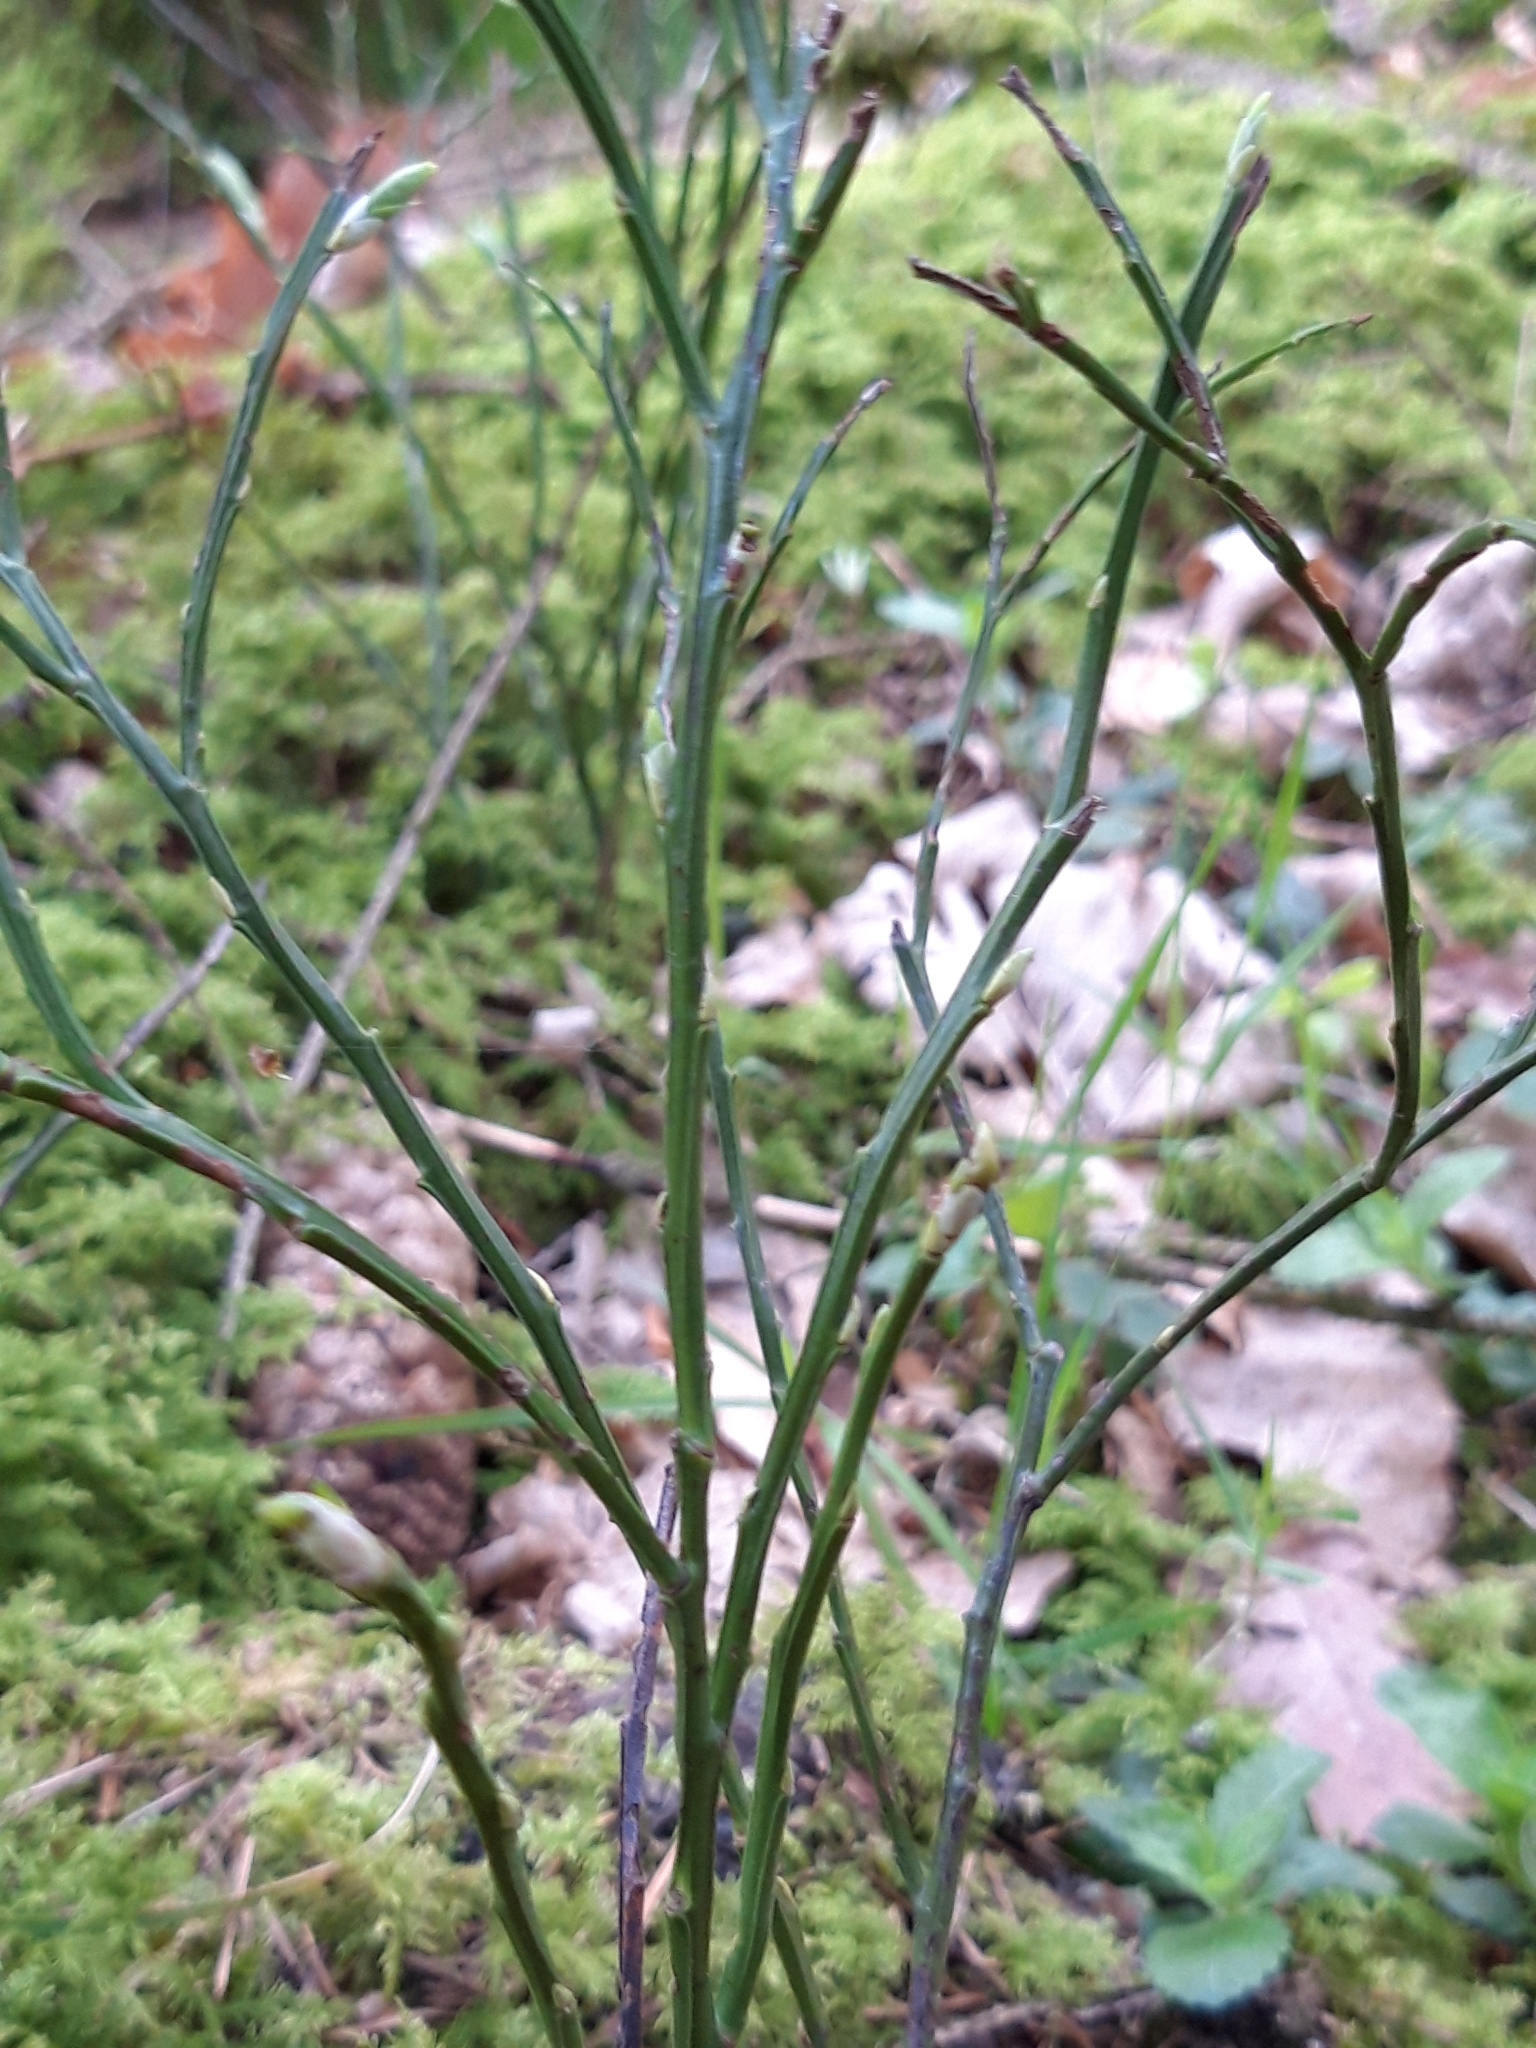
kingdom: Plantae
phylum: Tracheophyta
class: Magnoliopsida
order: Ericales
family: Ericaceae
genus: Vaccinium
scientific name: Vaccinium myrtillus
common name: Bilberry
